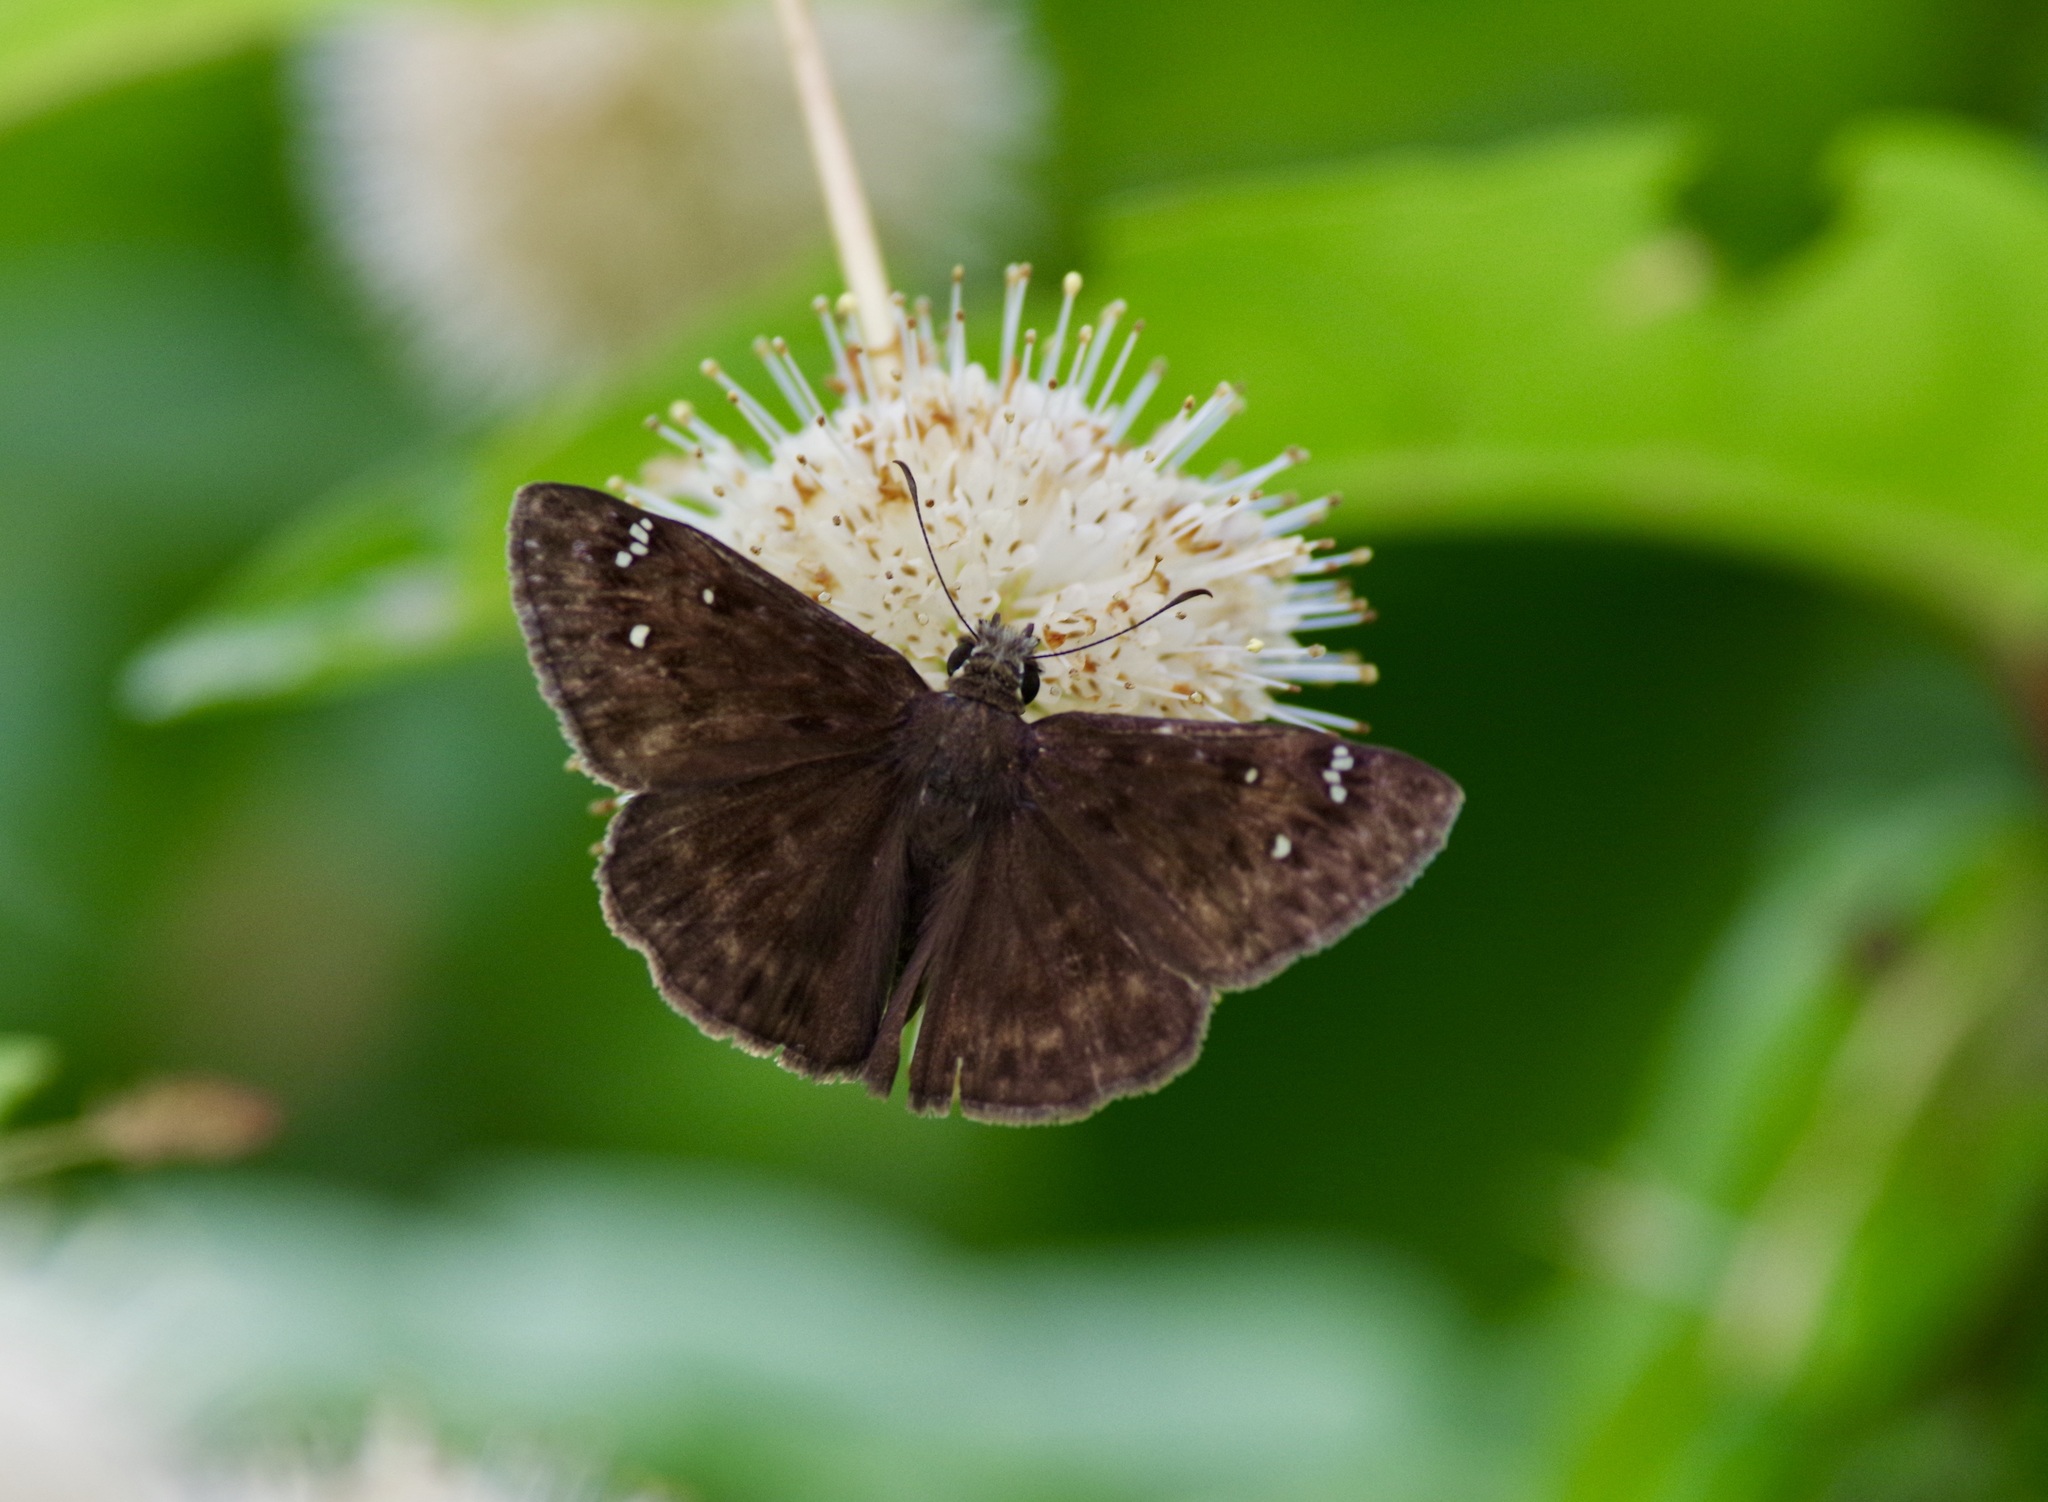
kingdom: Animalia
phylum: Arthropoda
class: Insecta
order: Lepidoptera
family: Hesperiidae
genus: Erynnis
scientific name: Erynnis horatius
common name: Horace's duskywing
